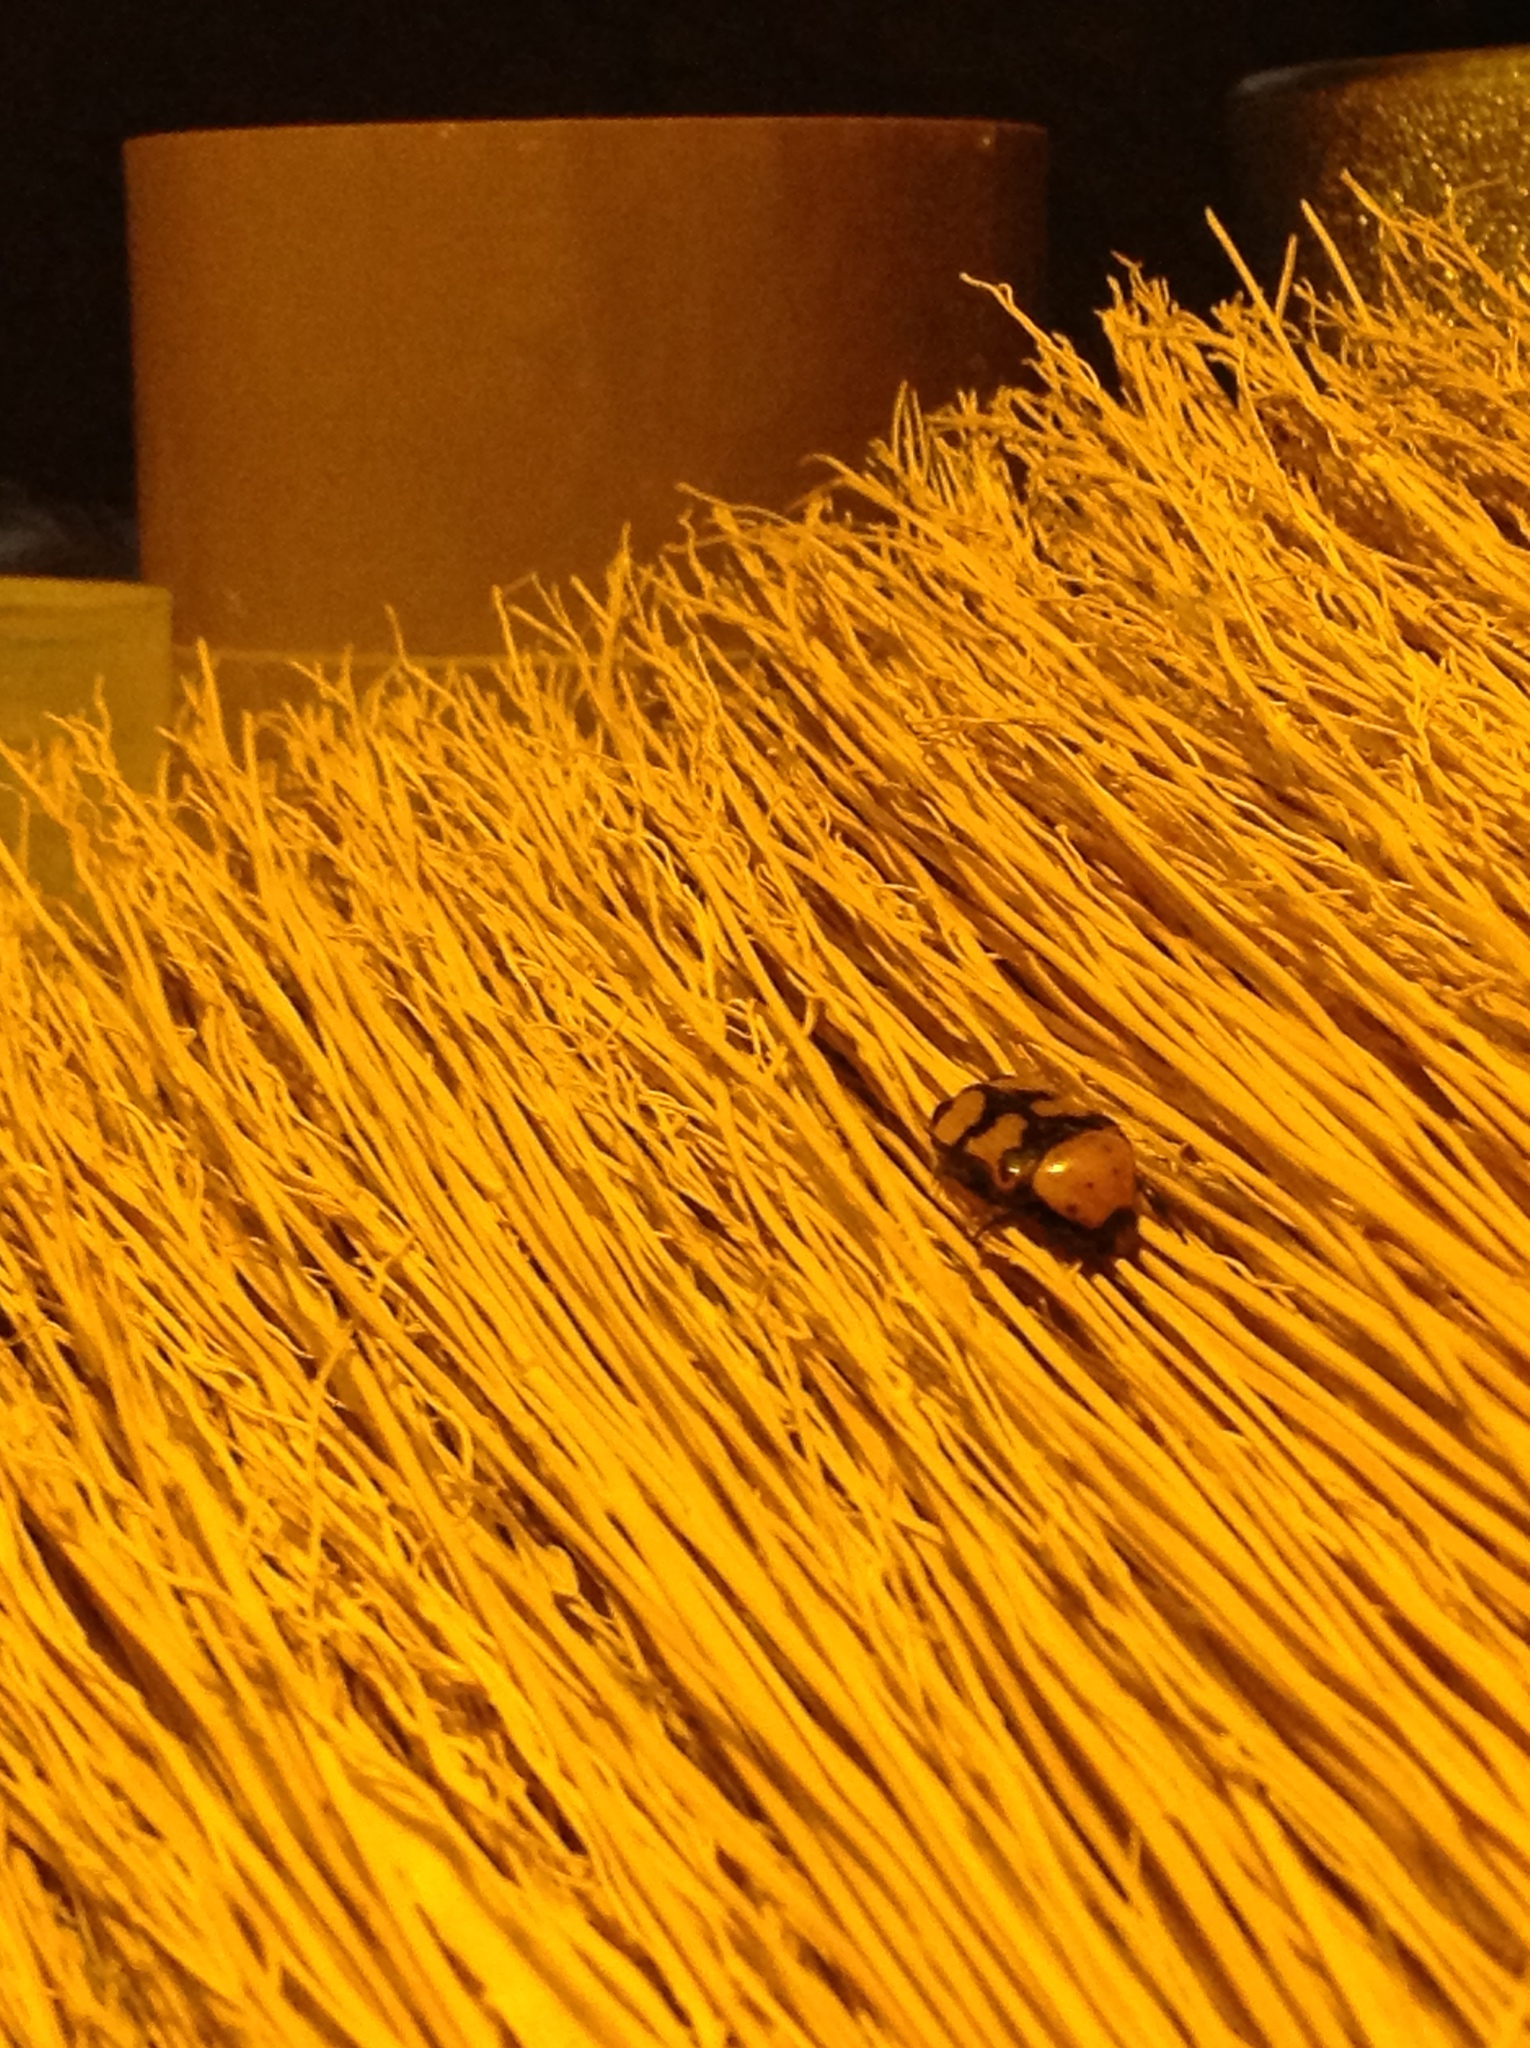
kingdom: Animalia
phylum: Arthropoda
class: Insecta
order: Coleoptera
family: Scarabaeidae
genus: Euphoria
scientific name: Euphoria fascifera
